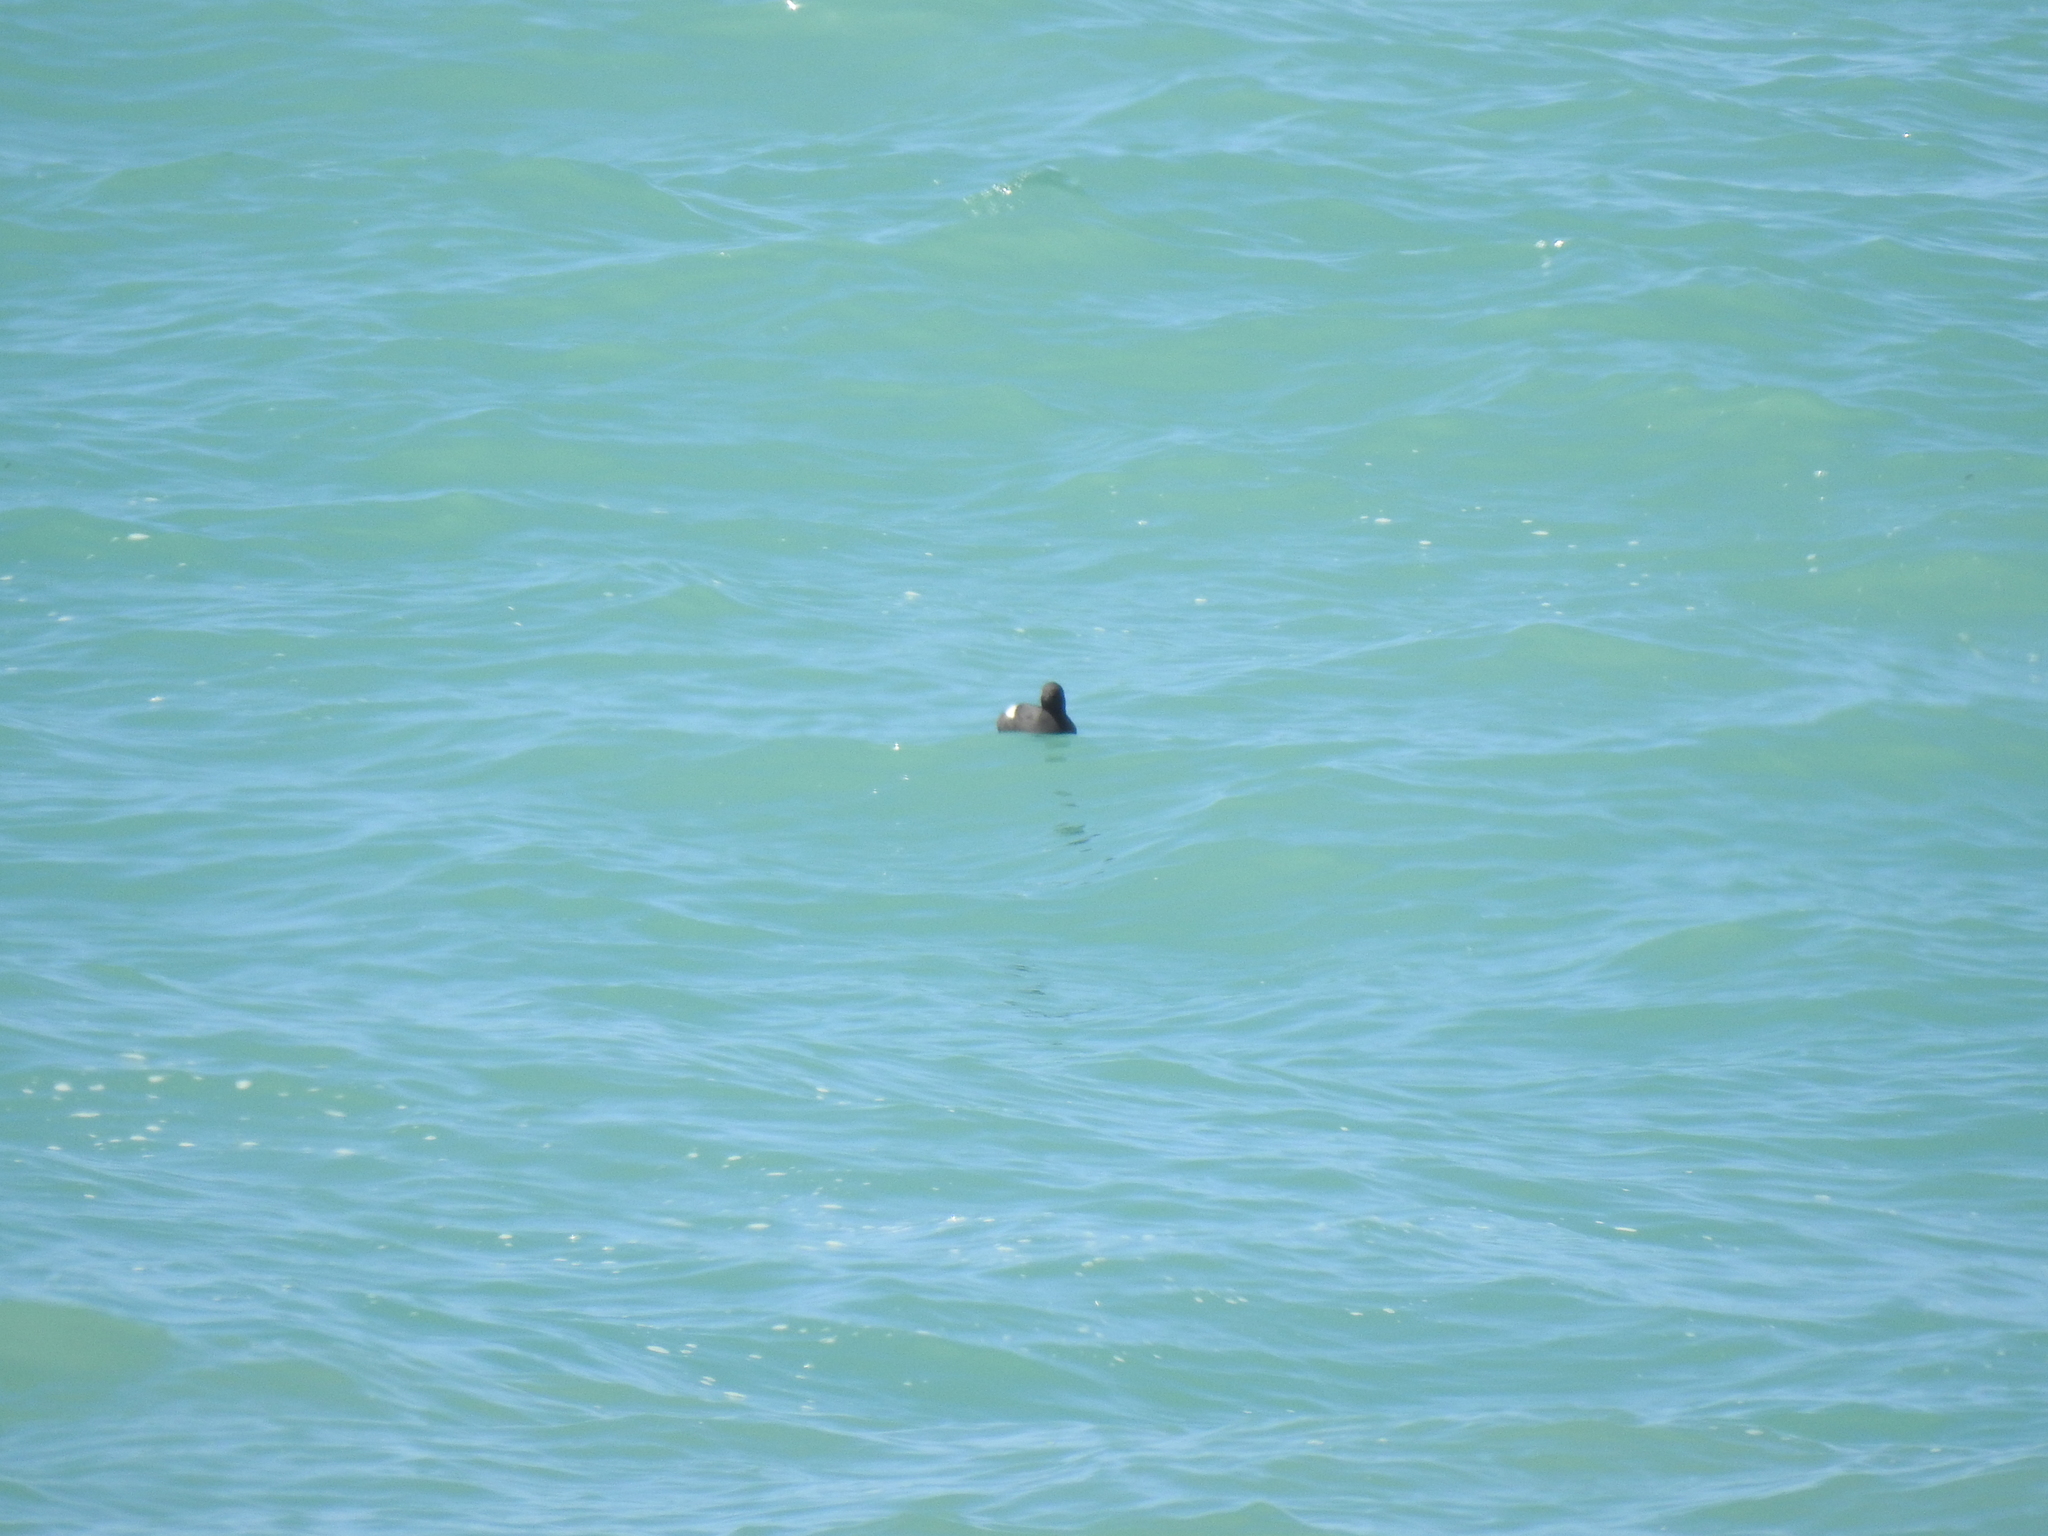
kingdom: Animalia
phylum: Chordata
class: Aves
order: Charadriiformes
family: Alcidae
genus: Cepphus
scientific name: Cepphus columba
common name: Pigeon guillemot
